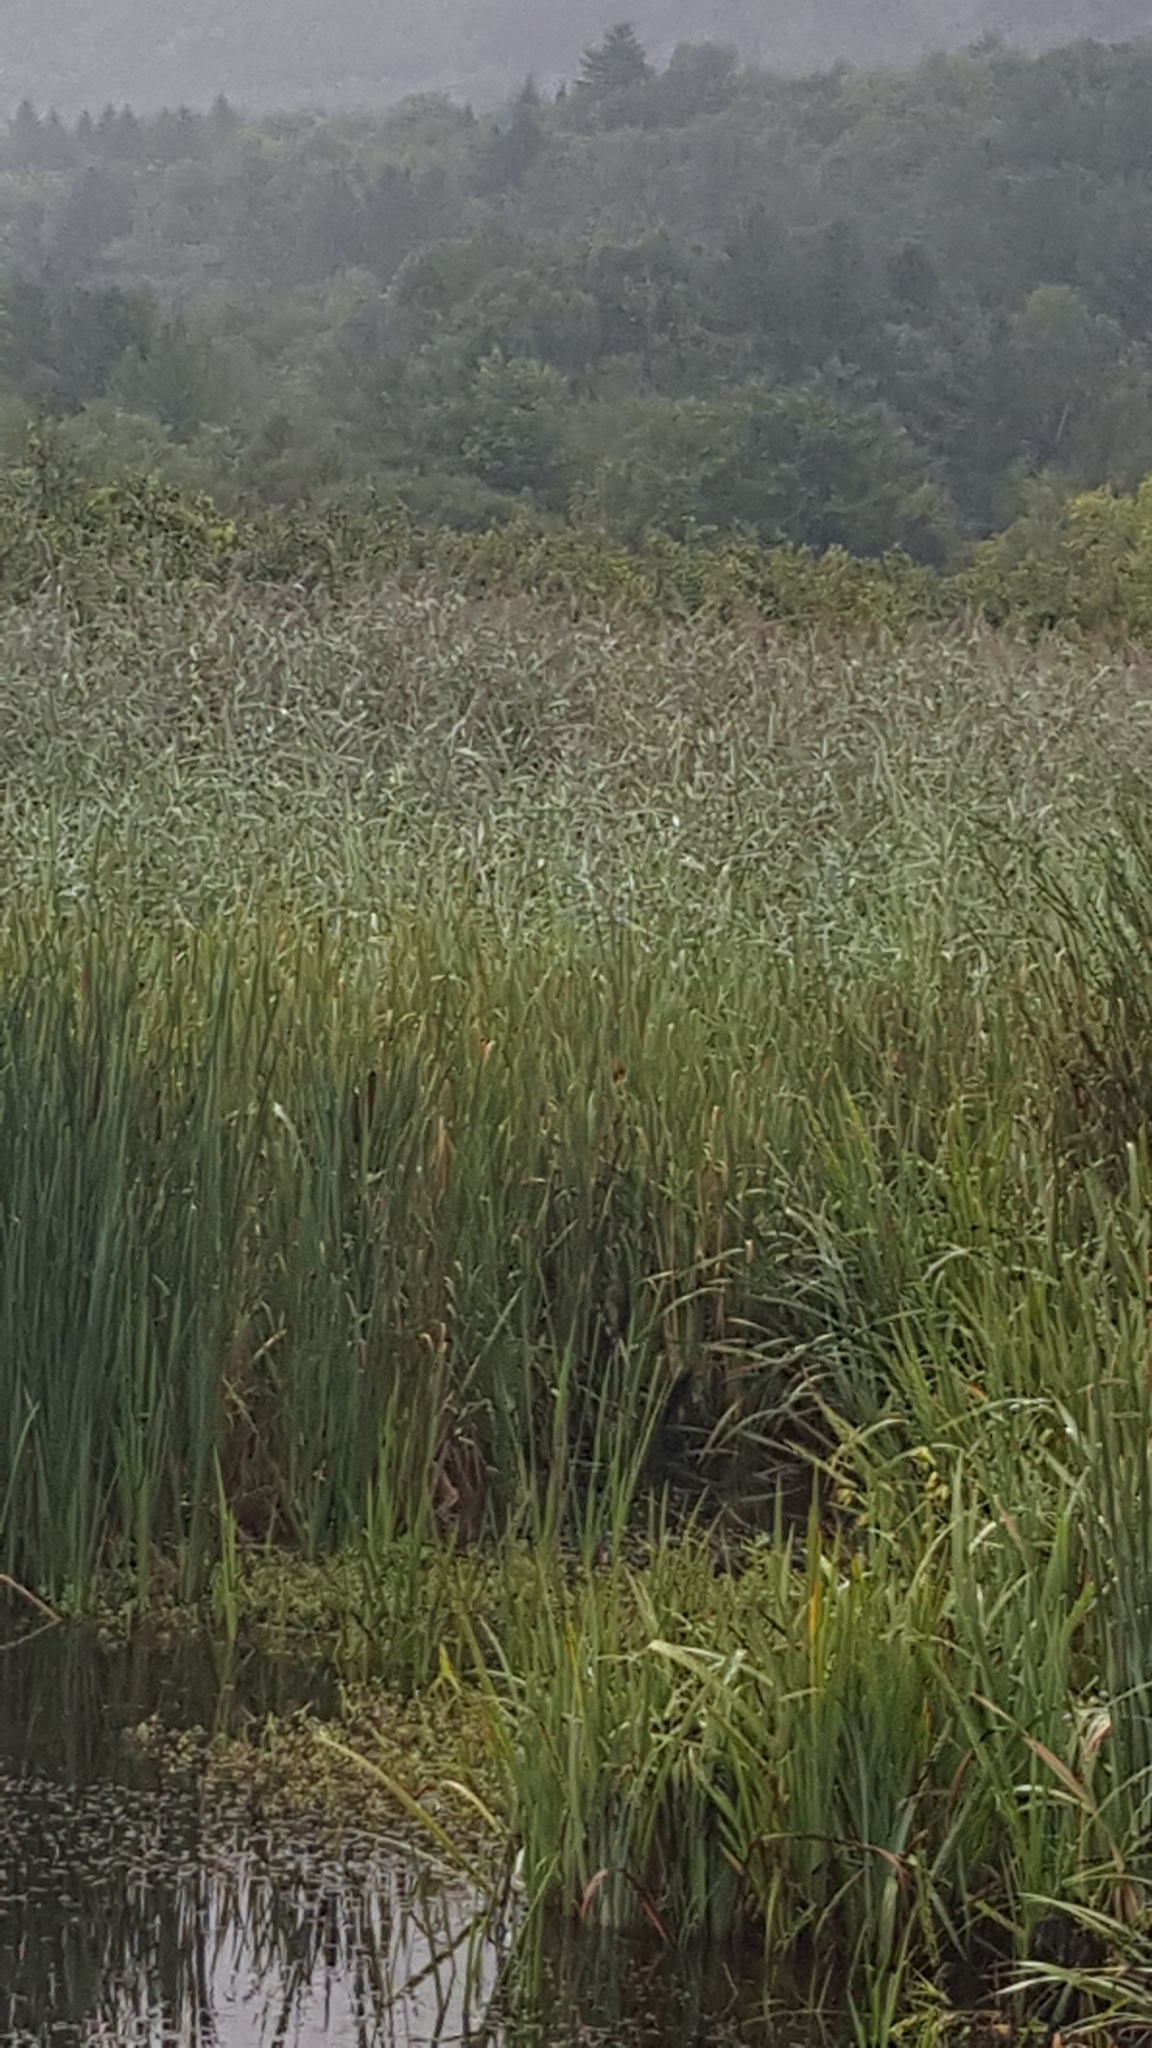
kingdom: Plantae
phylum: Tracheophyta
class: Liliopsida
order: Poales
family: Poaceae
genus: Phragmites
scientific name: Phragmites australis
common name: Common reed
